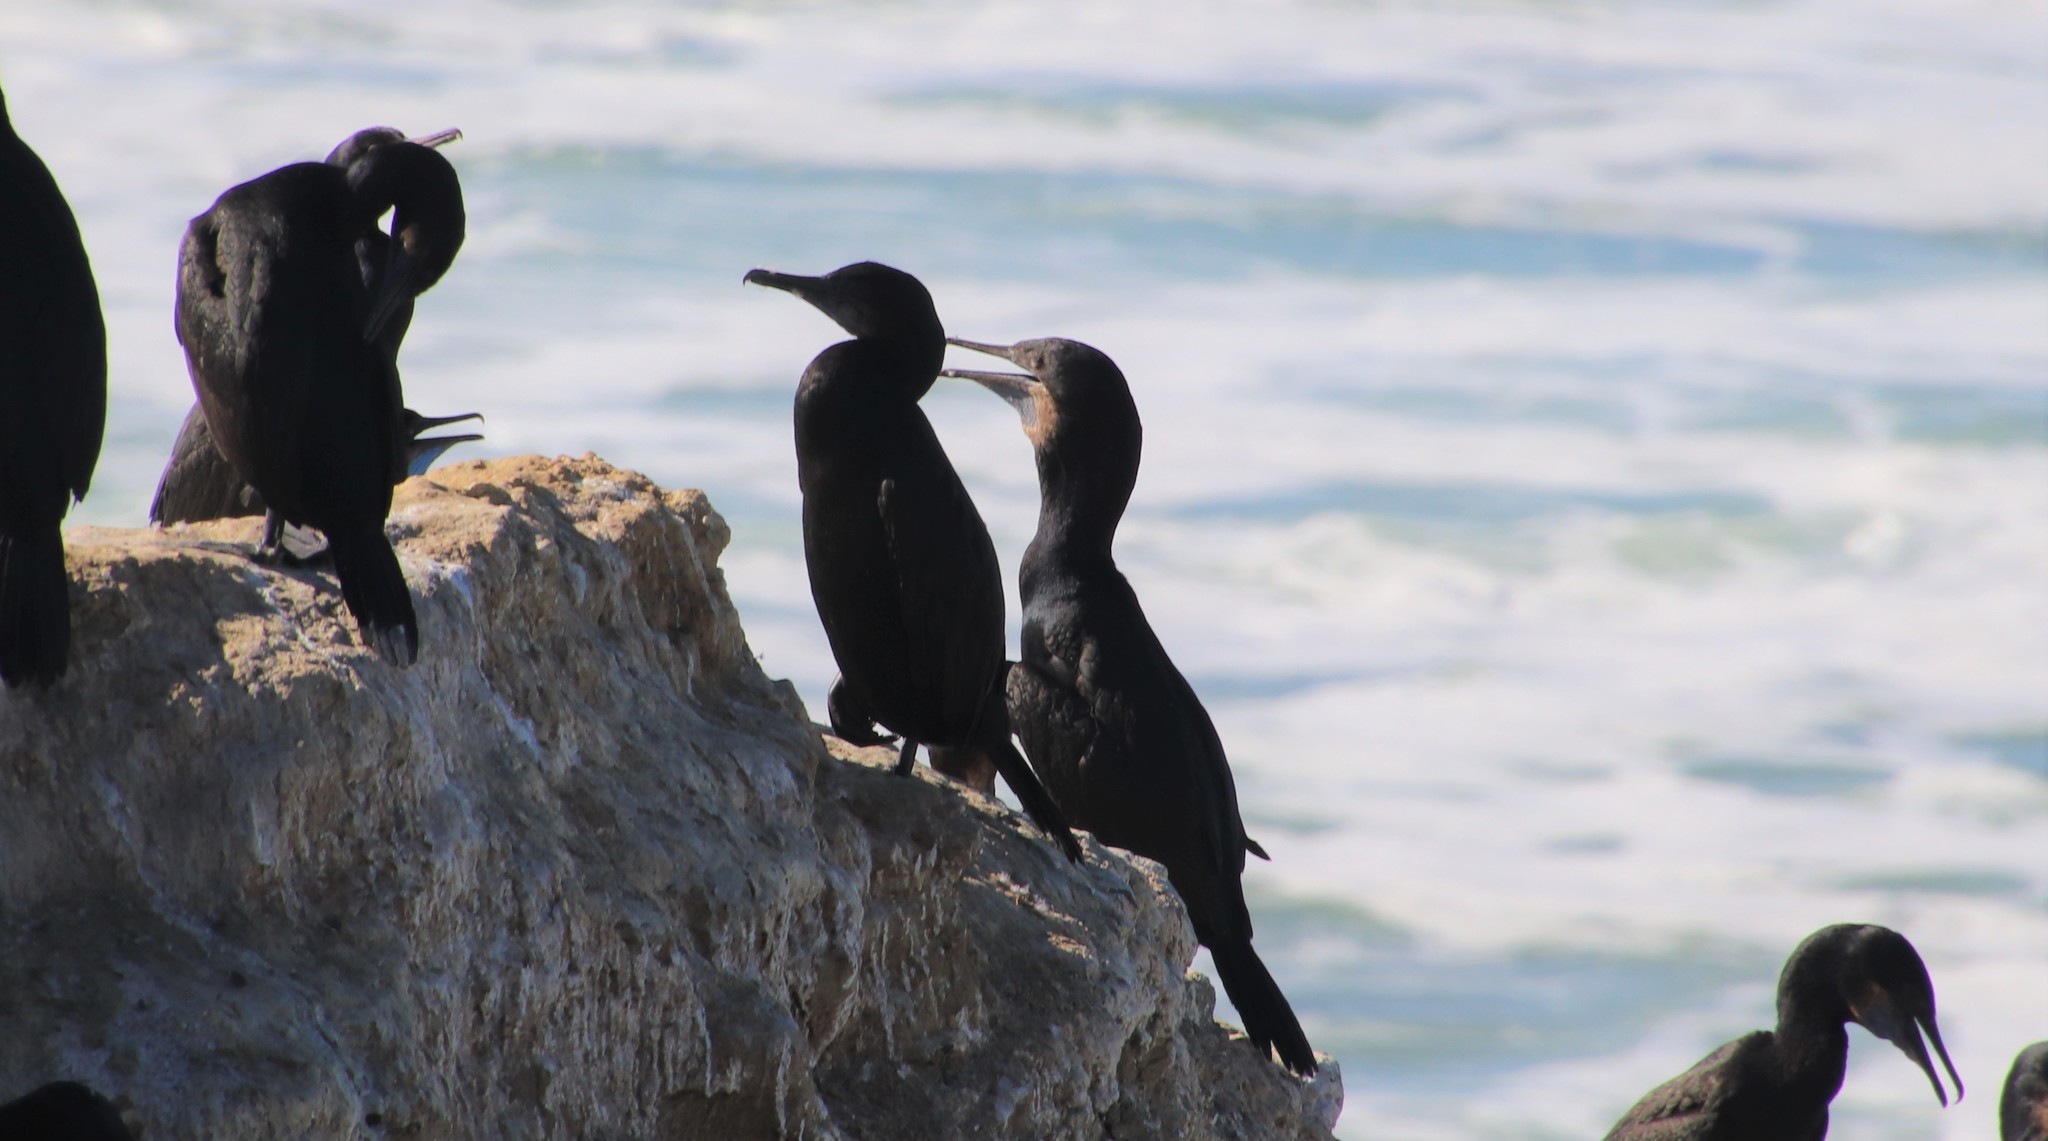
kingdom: Animalia
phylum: Chordata
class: Aves
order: Suliformes
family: Phalacrocoracidae
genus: Urile
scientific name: Urile penicillatus
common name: Brandt's cormorant
